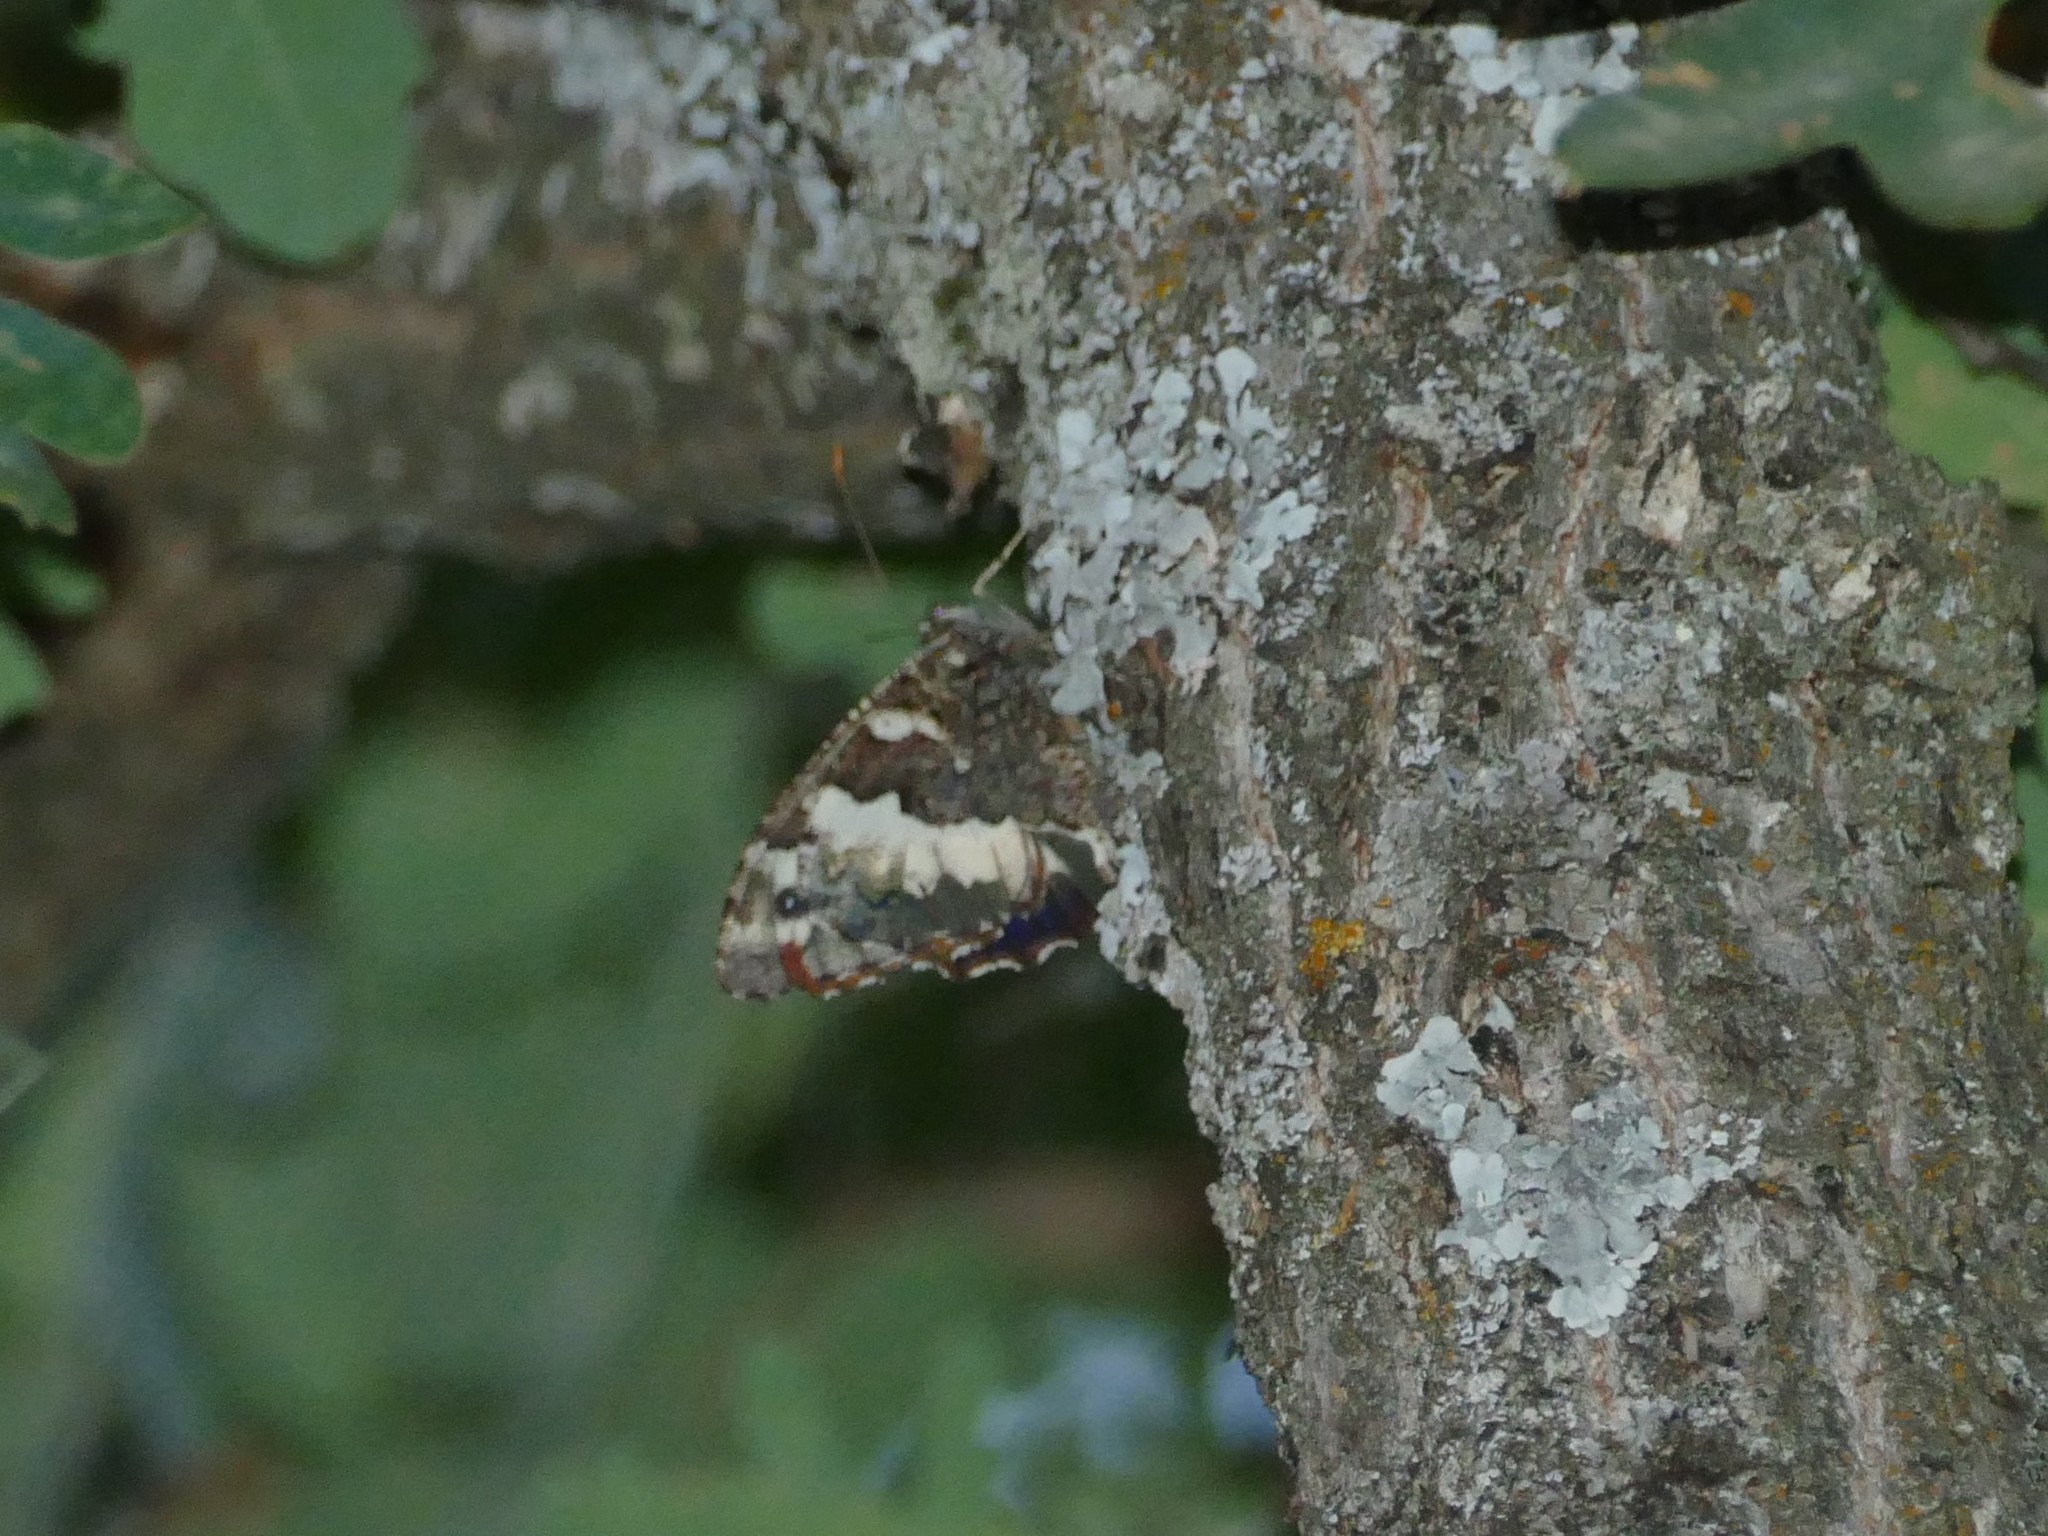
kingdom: Animalia
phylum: Arthropoda
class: Insecta
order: Lepidoptera
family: Lycaenidae
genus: Loweia
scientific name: Loweia tityrus
